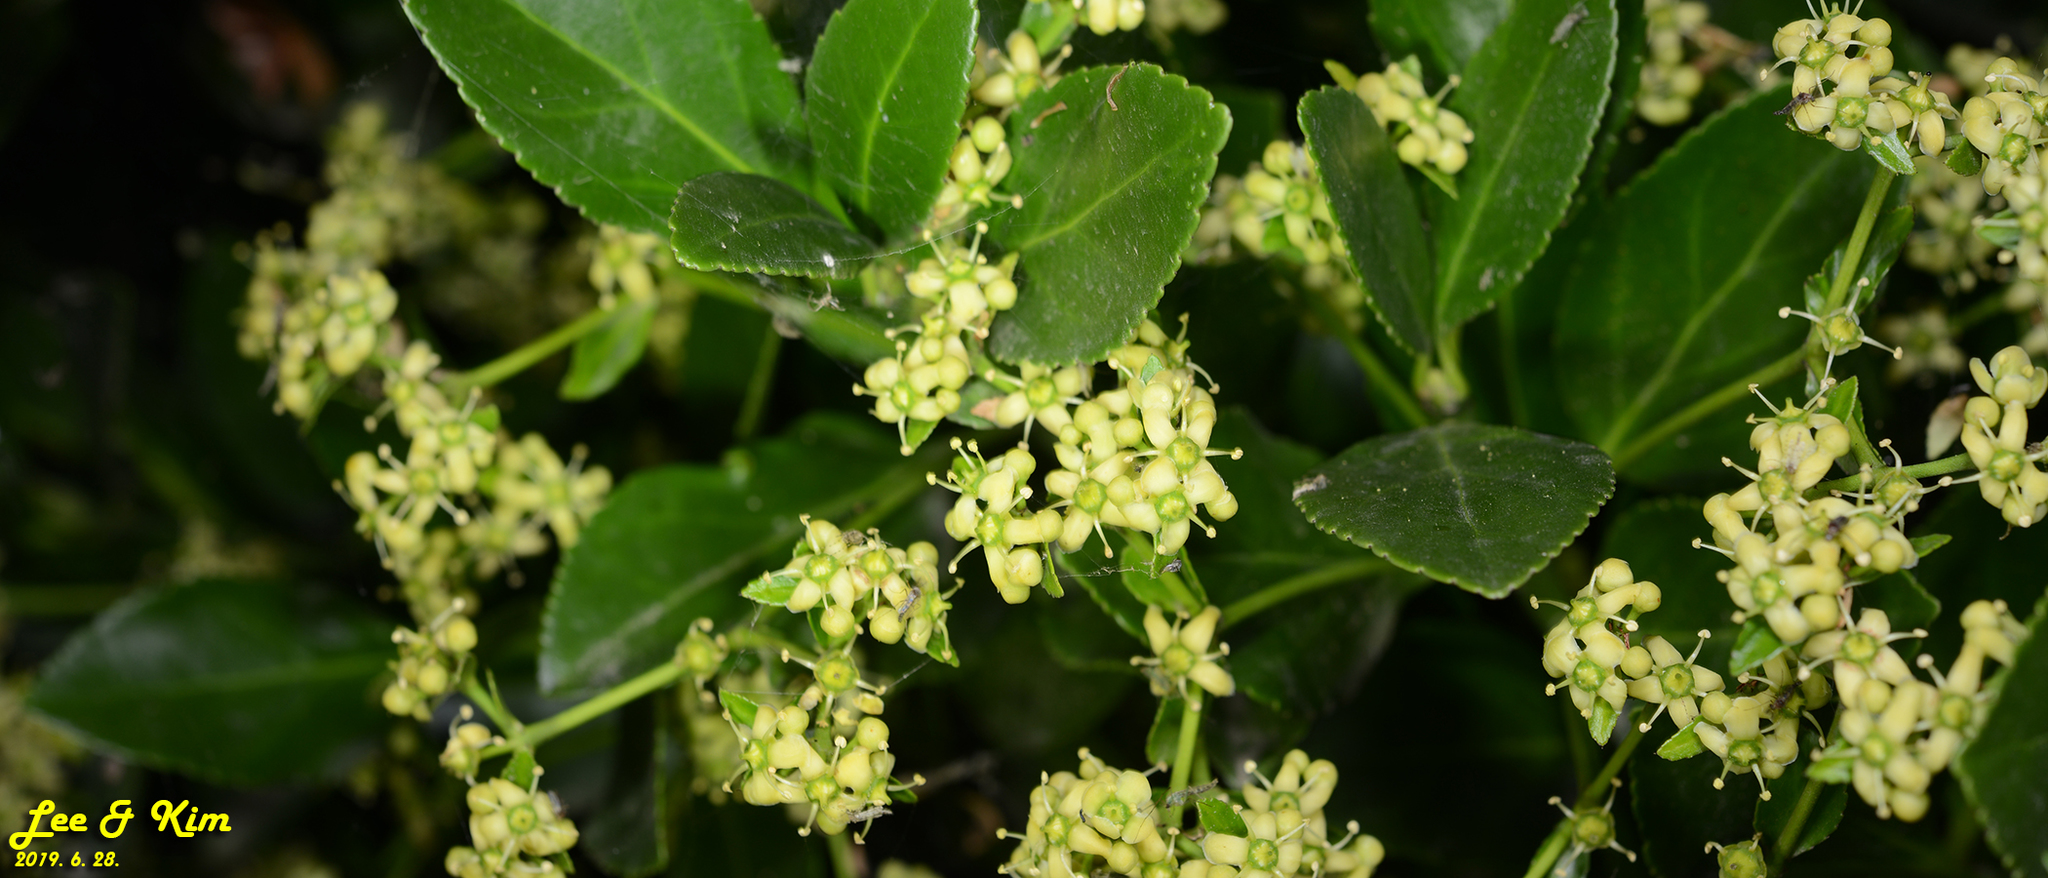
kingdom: Plantae
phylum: Tracheophyta
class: Magnoliopsida
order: Celastrales
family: Celastraceae
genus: Euonymus
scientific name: Euonymus japonicus
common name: Japanese spindletree
